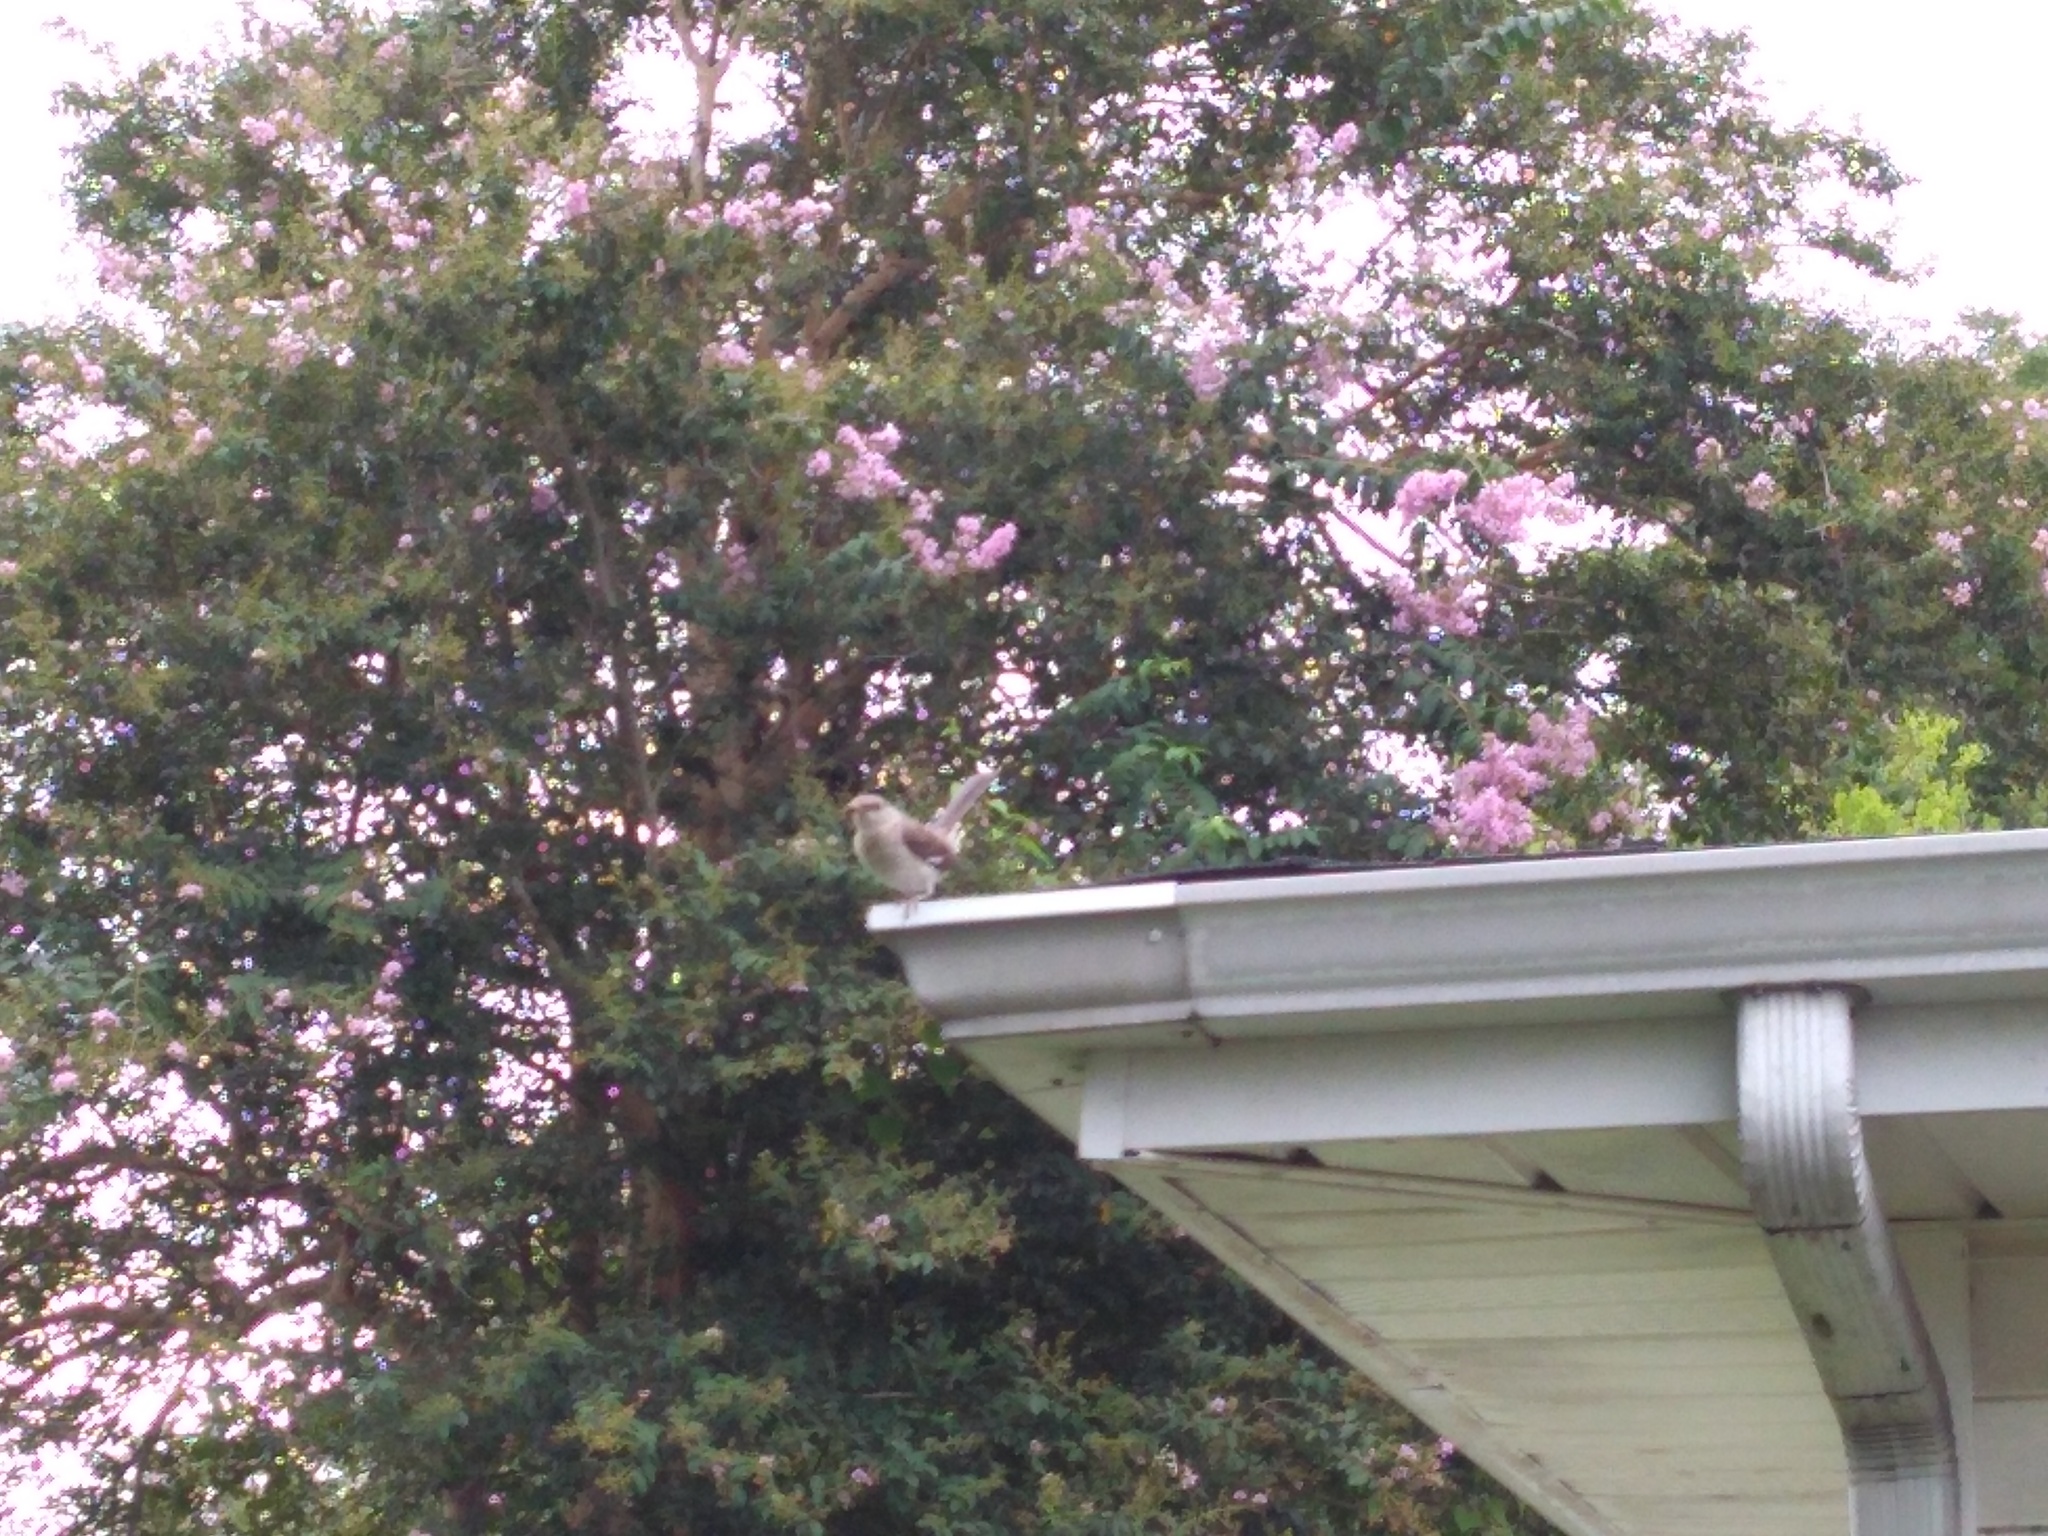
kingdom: Animalia
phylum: Chordata
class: Aves
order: Passeriformes
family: Mimidae
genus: Mimus
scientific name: Mimus polyglottos
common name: Northern mockingbird
